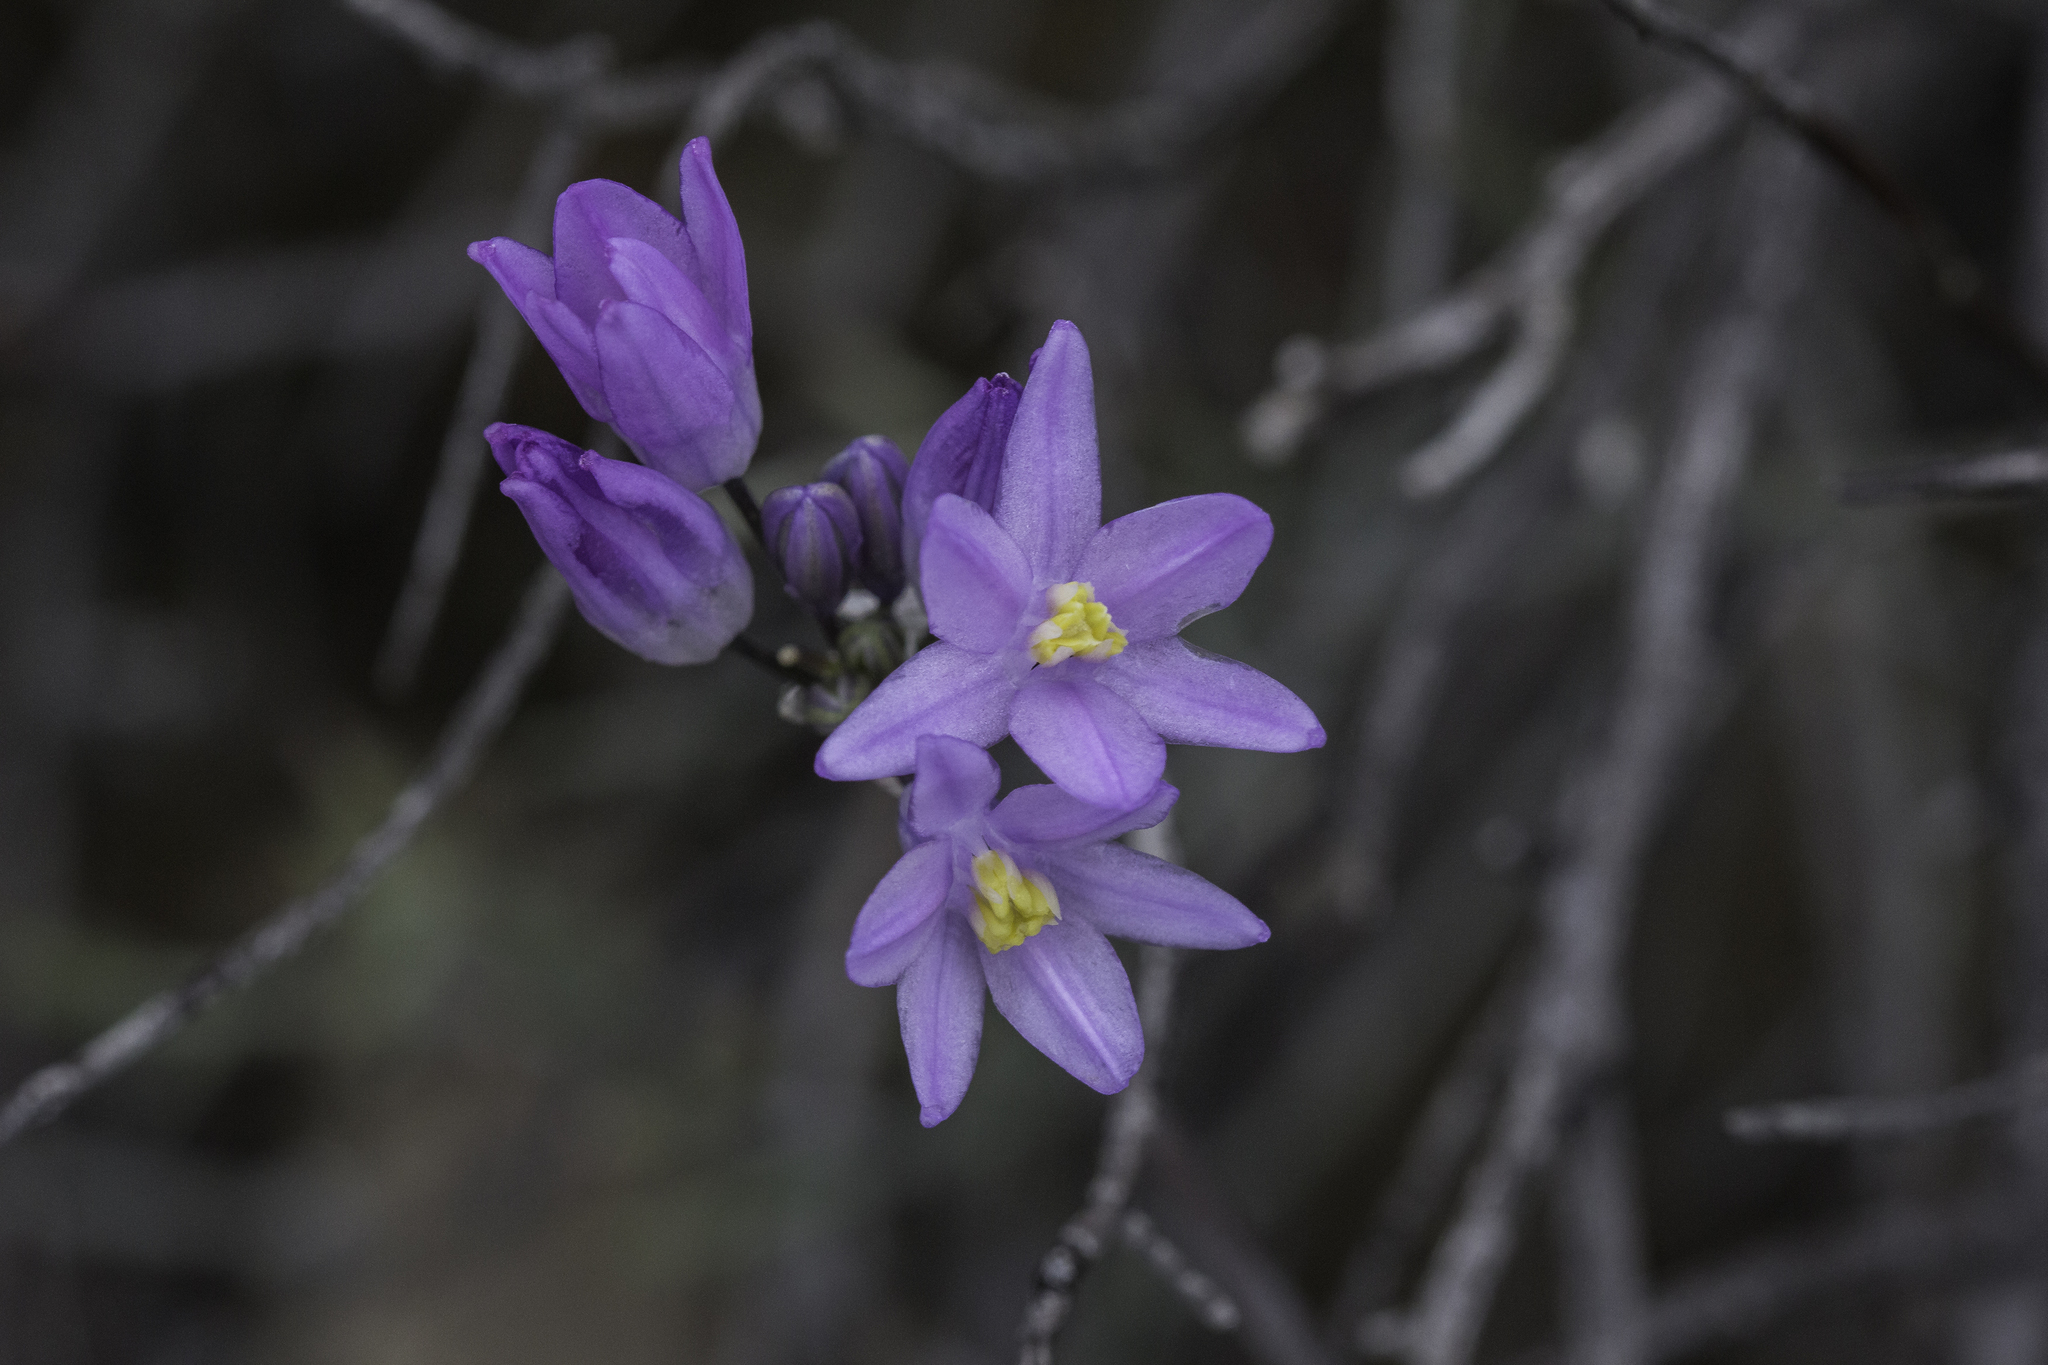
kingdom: Plantae
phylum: Tracheophyta
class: Liliopsida
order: Asparagales
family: Asparagaceae
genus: Dipterostemon
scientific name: Dipterostemon capitatus
